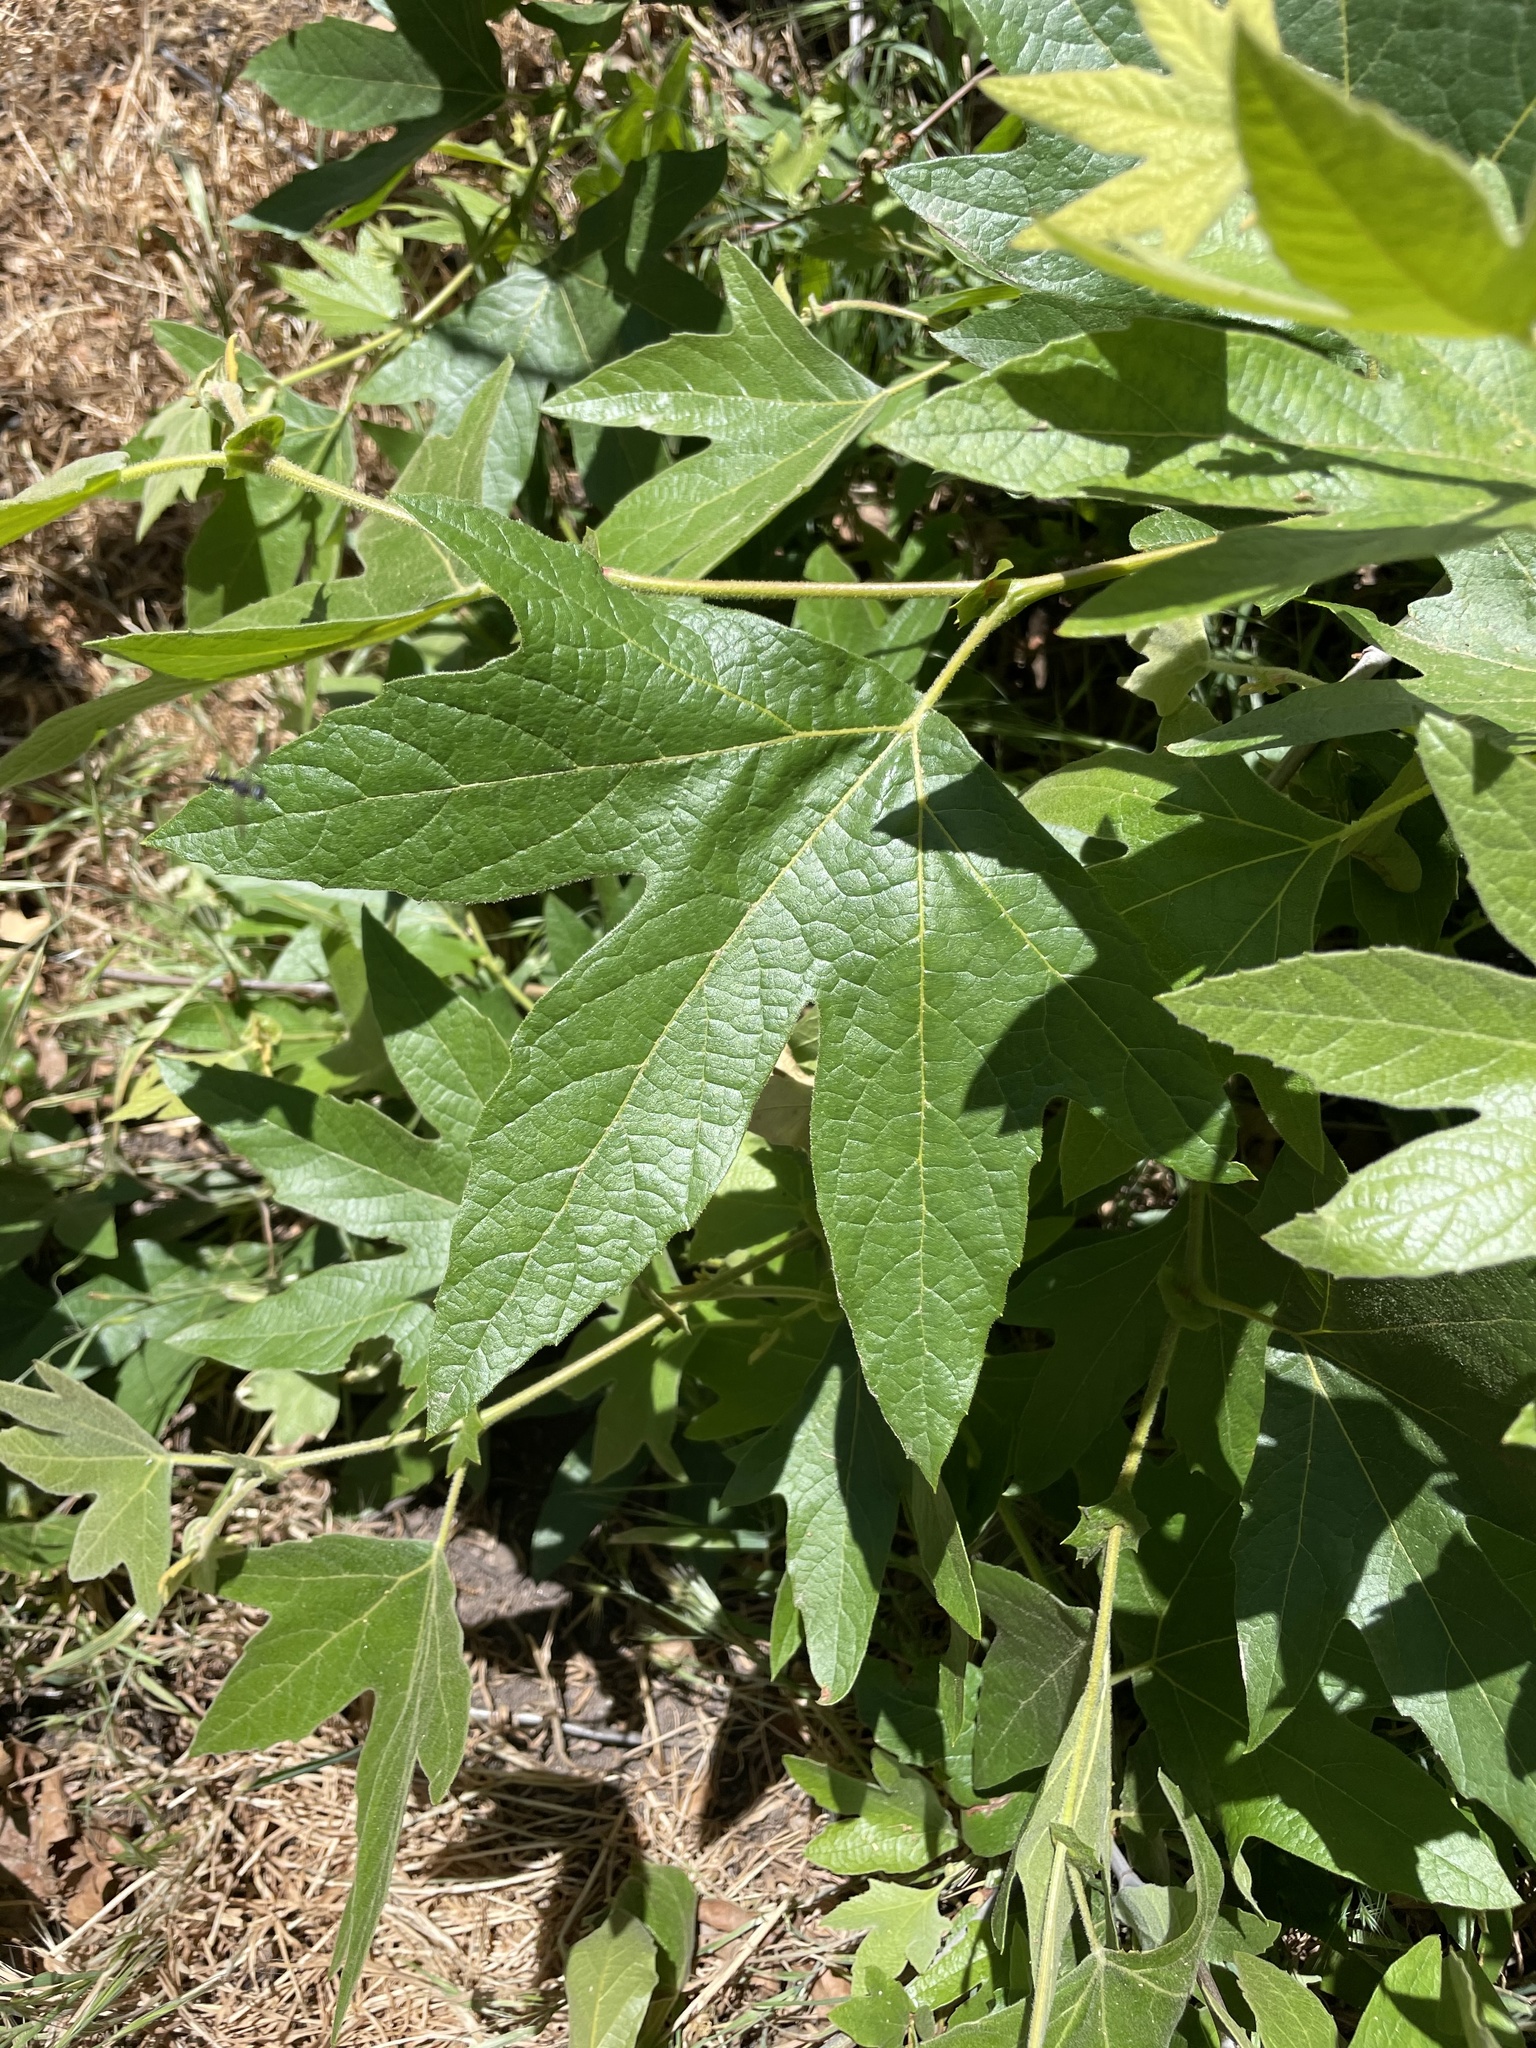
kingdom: Plantae
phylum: Tracheophyta
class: Magnoliopsida
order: Proteales
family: Platanaceae
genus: Platanus
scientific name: Platanus racemosa
